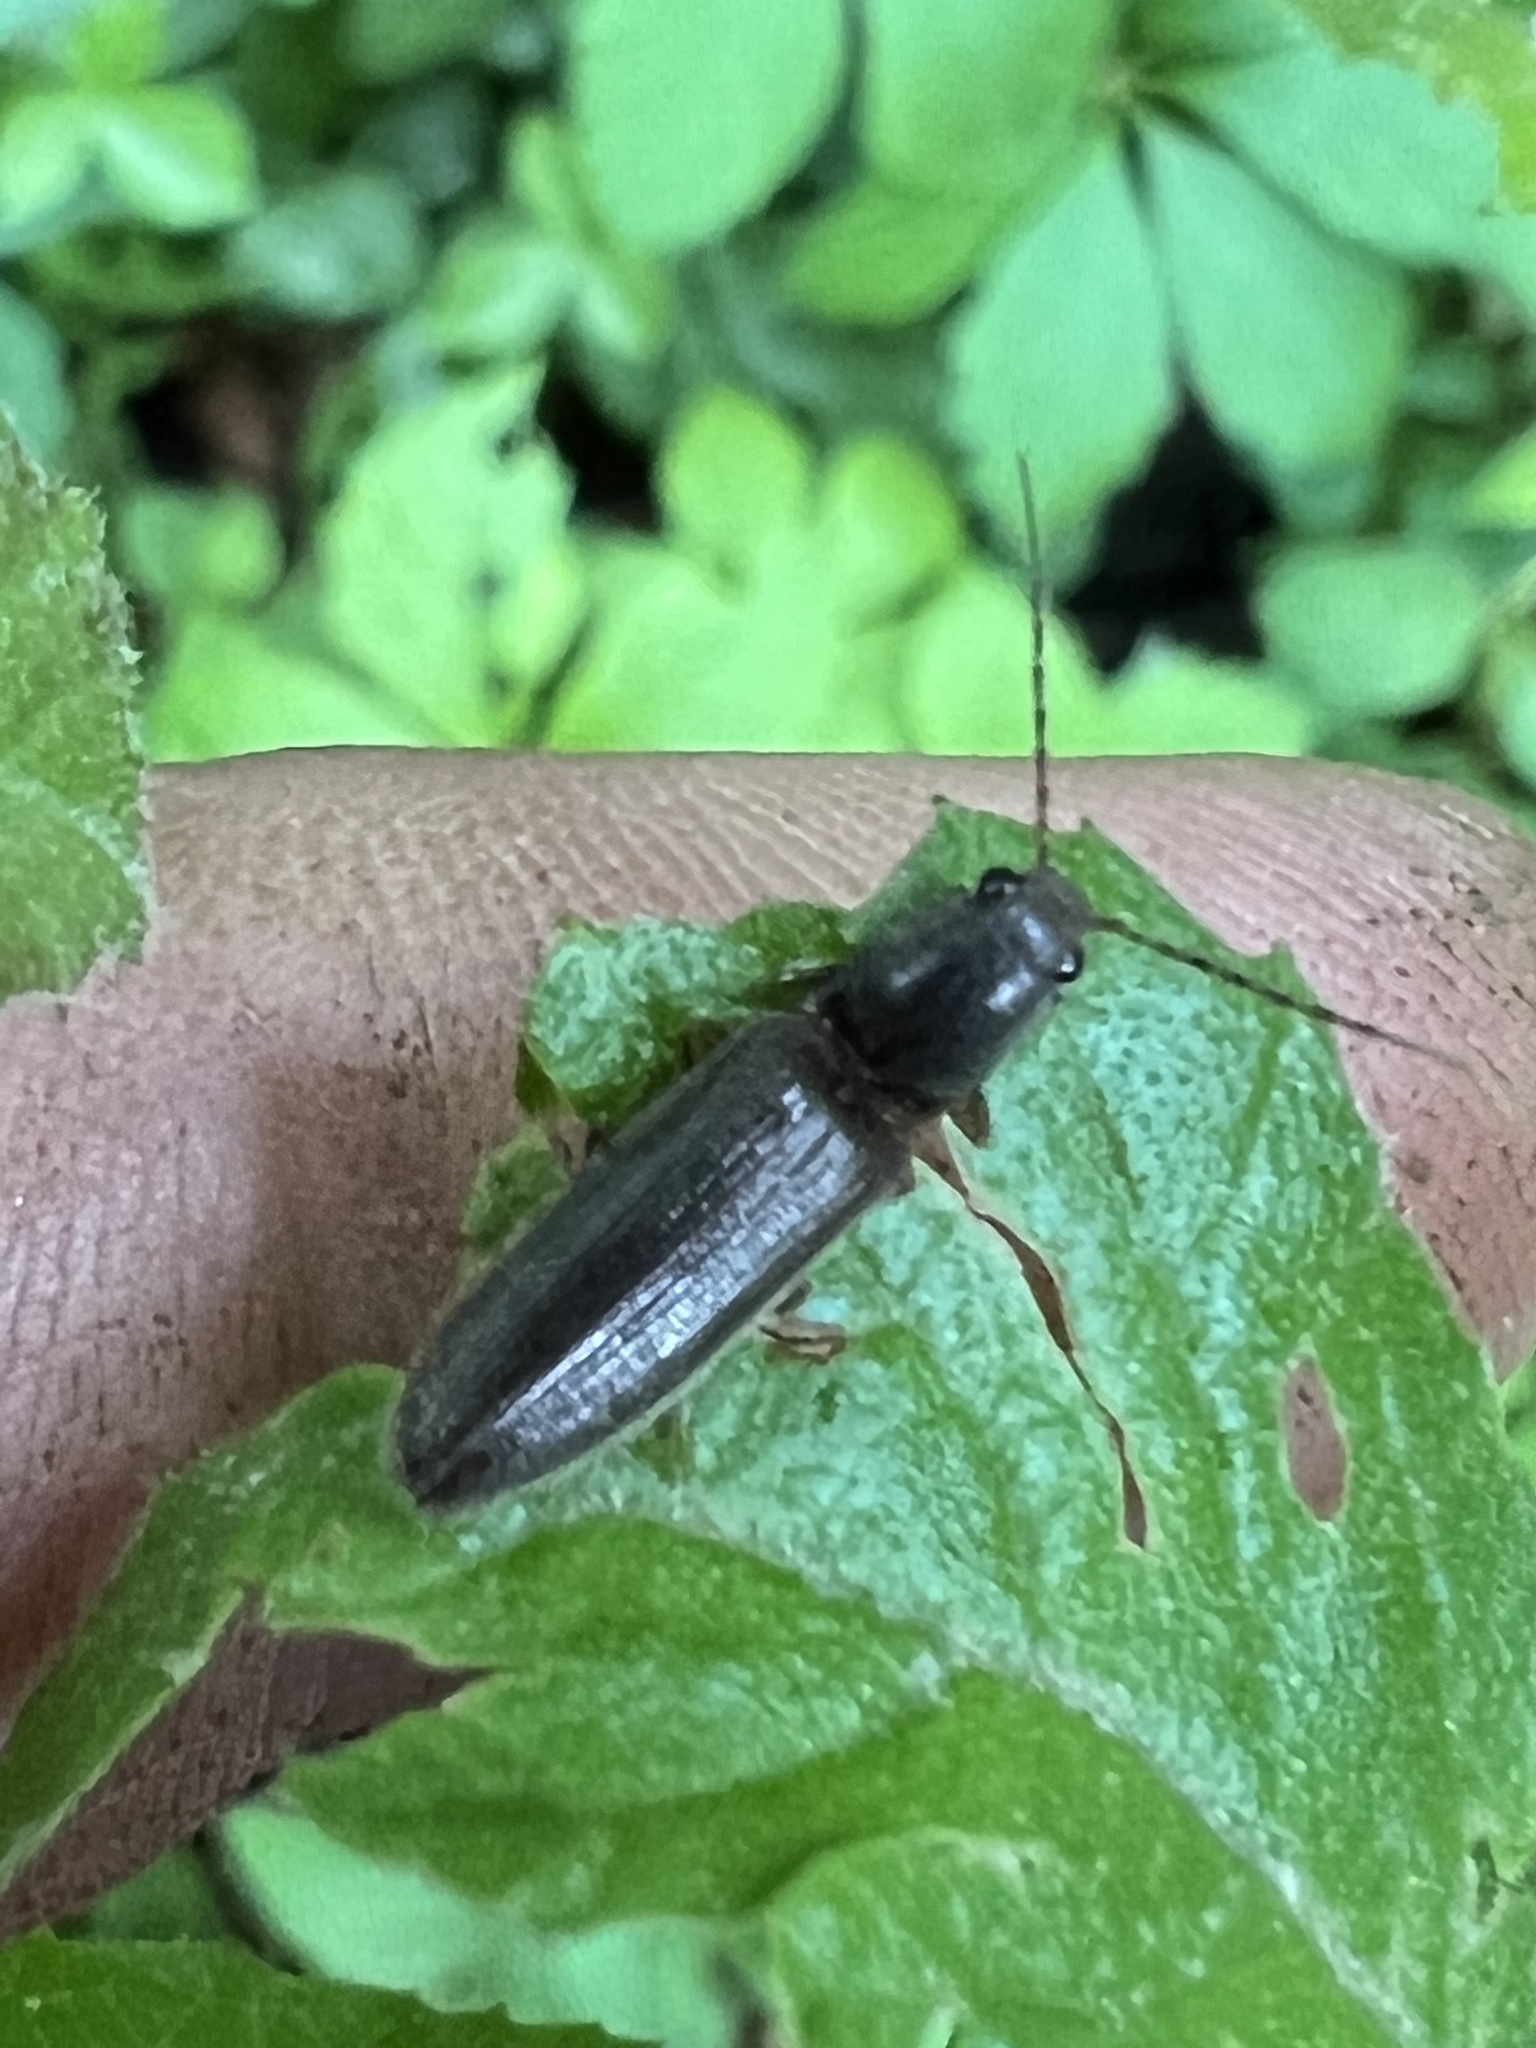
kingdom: Animalia
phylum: Arthropoda
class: Insecta
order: Coleoptera
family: Elateridae
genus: Athous
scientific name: Athous brightwelli
